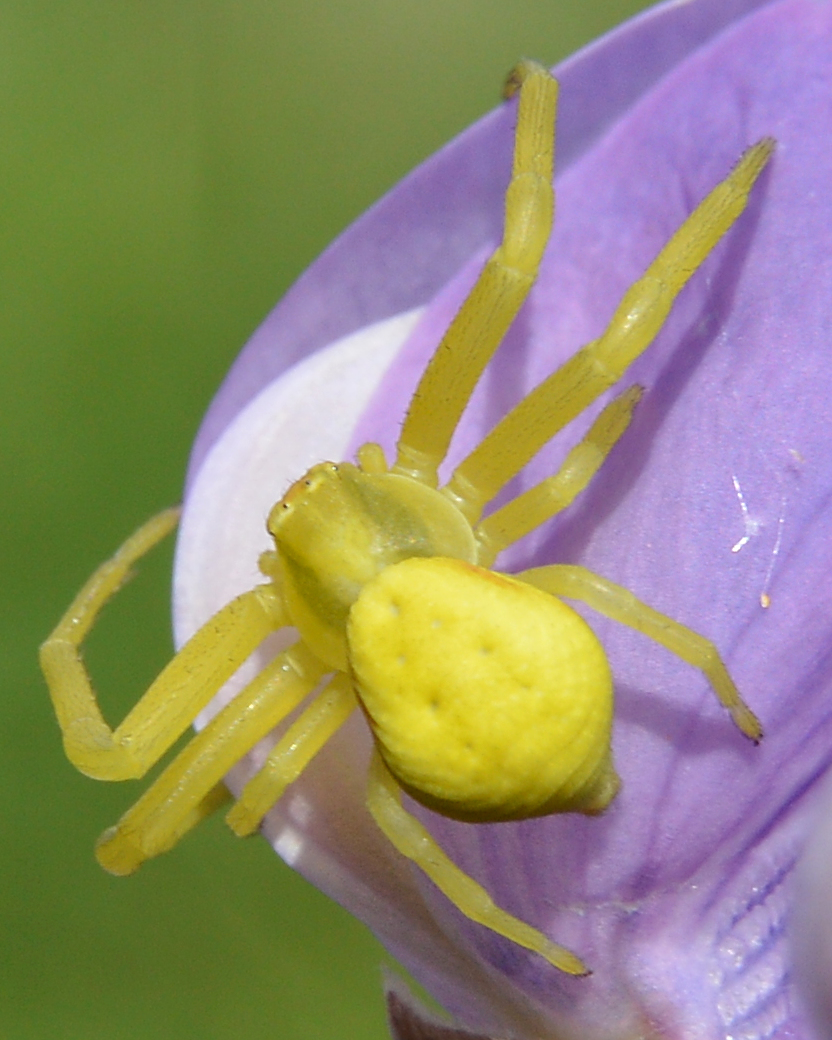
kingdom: Animalia
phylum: Arthropoda
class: Arachnida
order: Araneae
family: Thomisidae
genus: Misumena
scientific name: Misumena vatia
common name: Goldenrod crab spider
